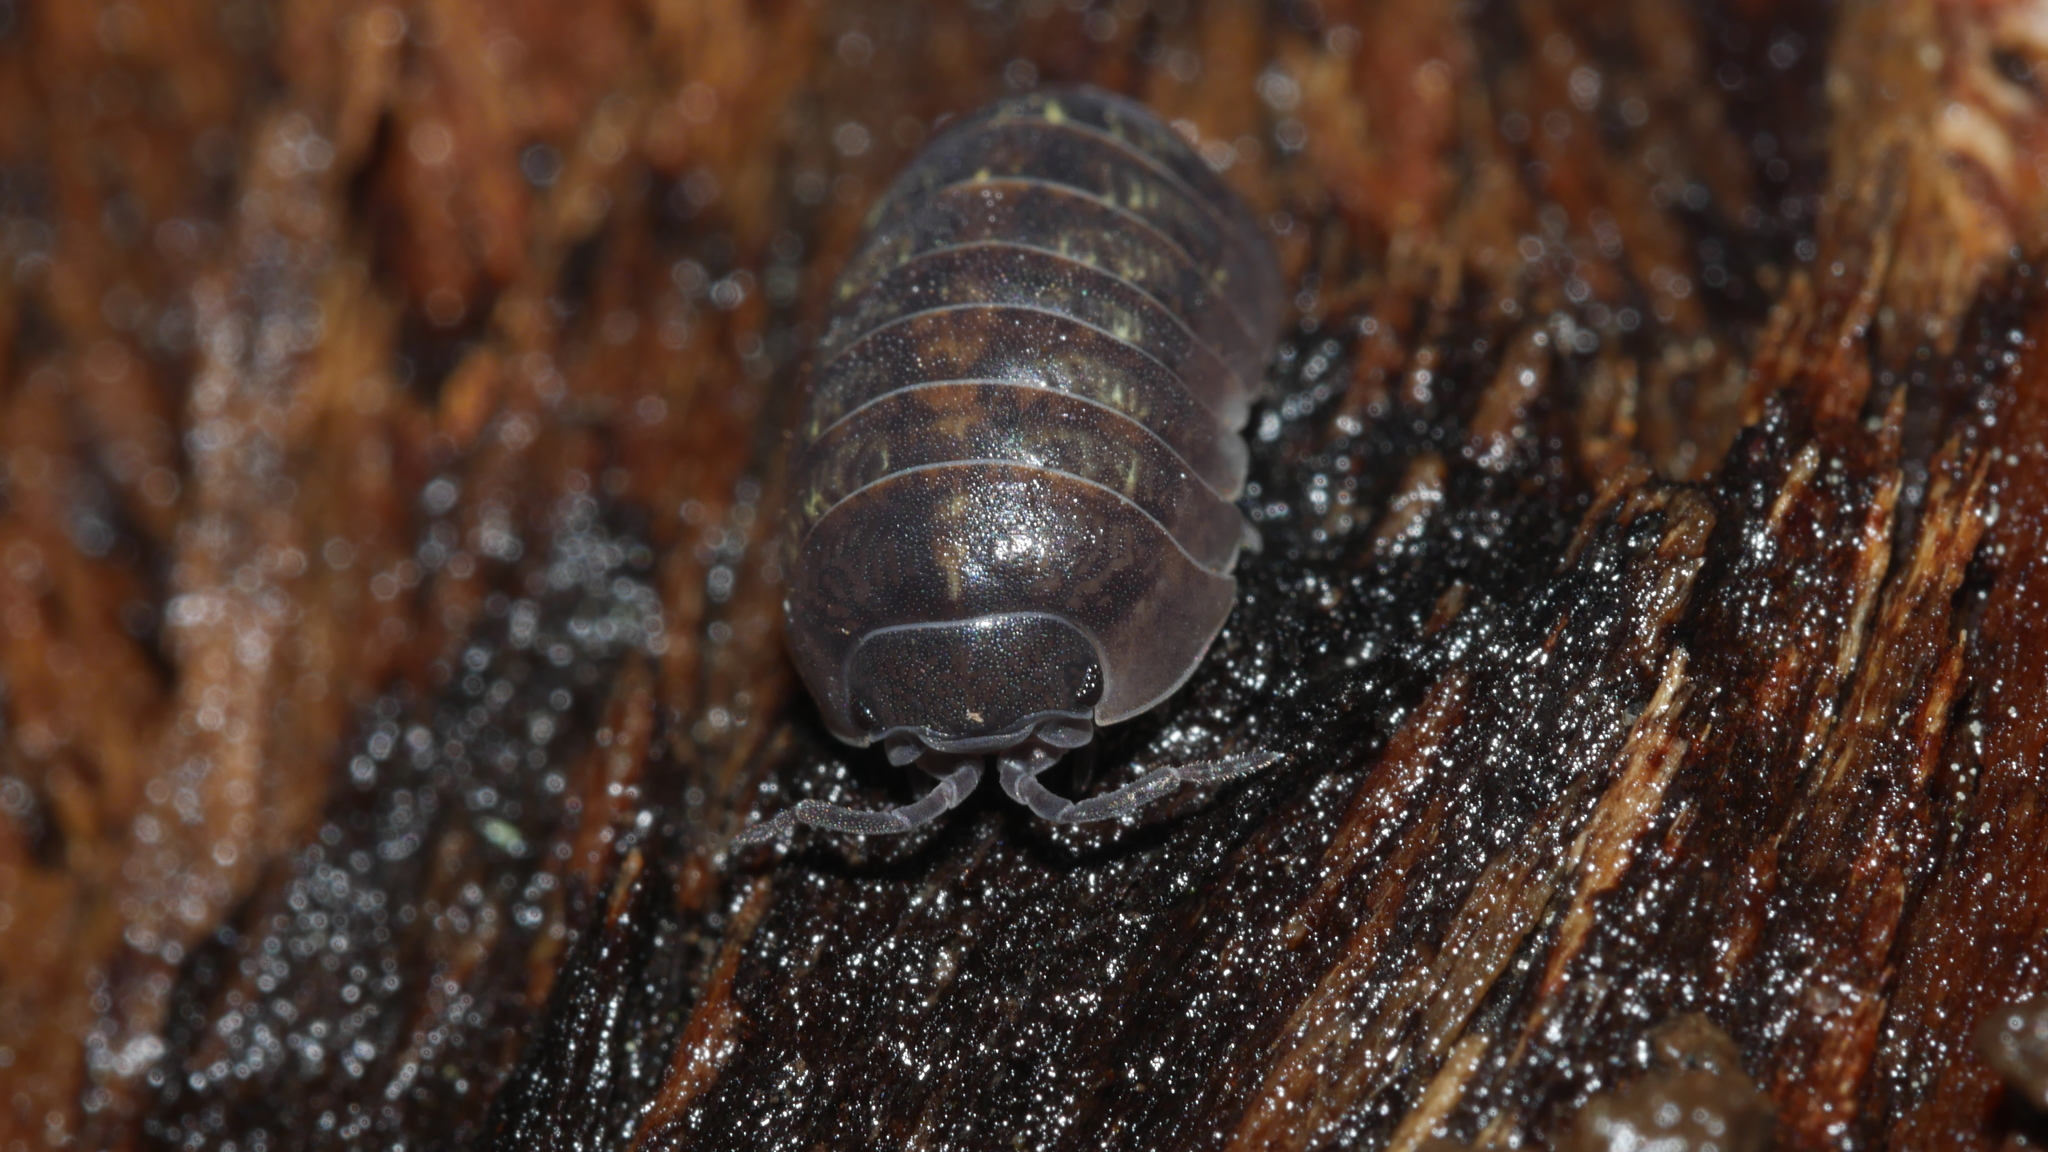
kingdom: Animalia
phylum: Arthropoda
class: Malacostraca
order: Isopoda
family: Armadillidiidae
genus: Armadillidium
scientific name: Armadillidium vulgare
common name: Common pill woodlouse
